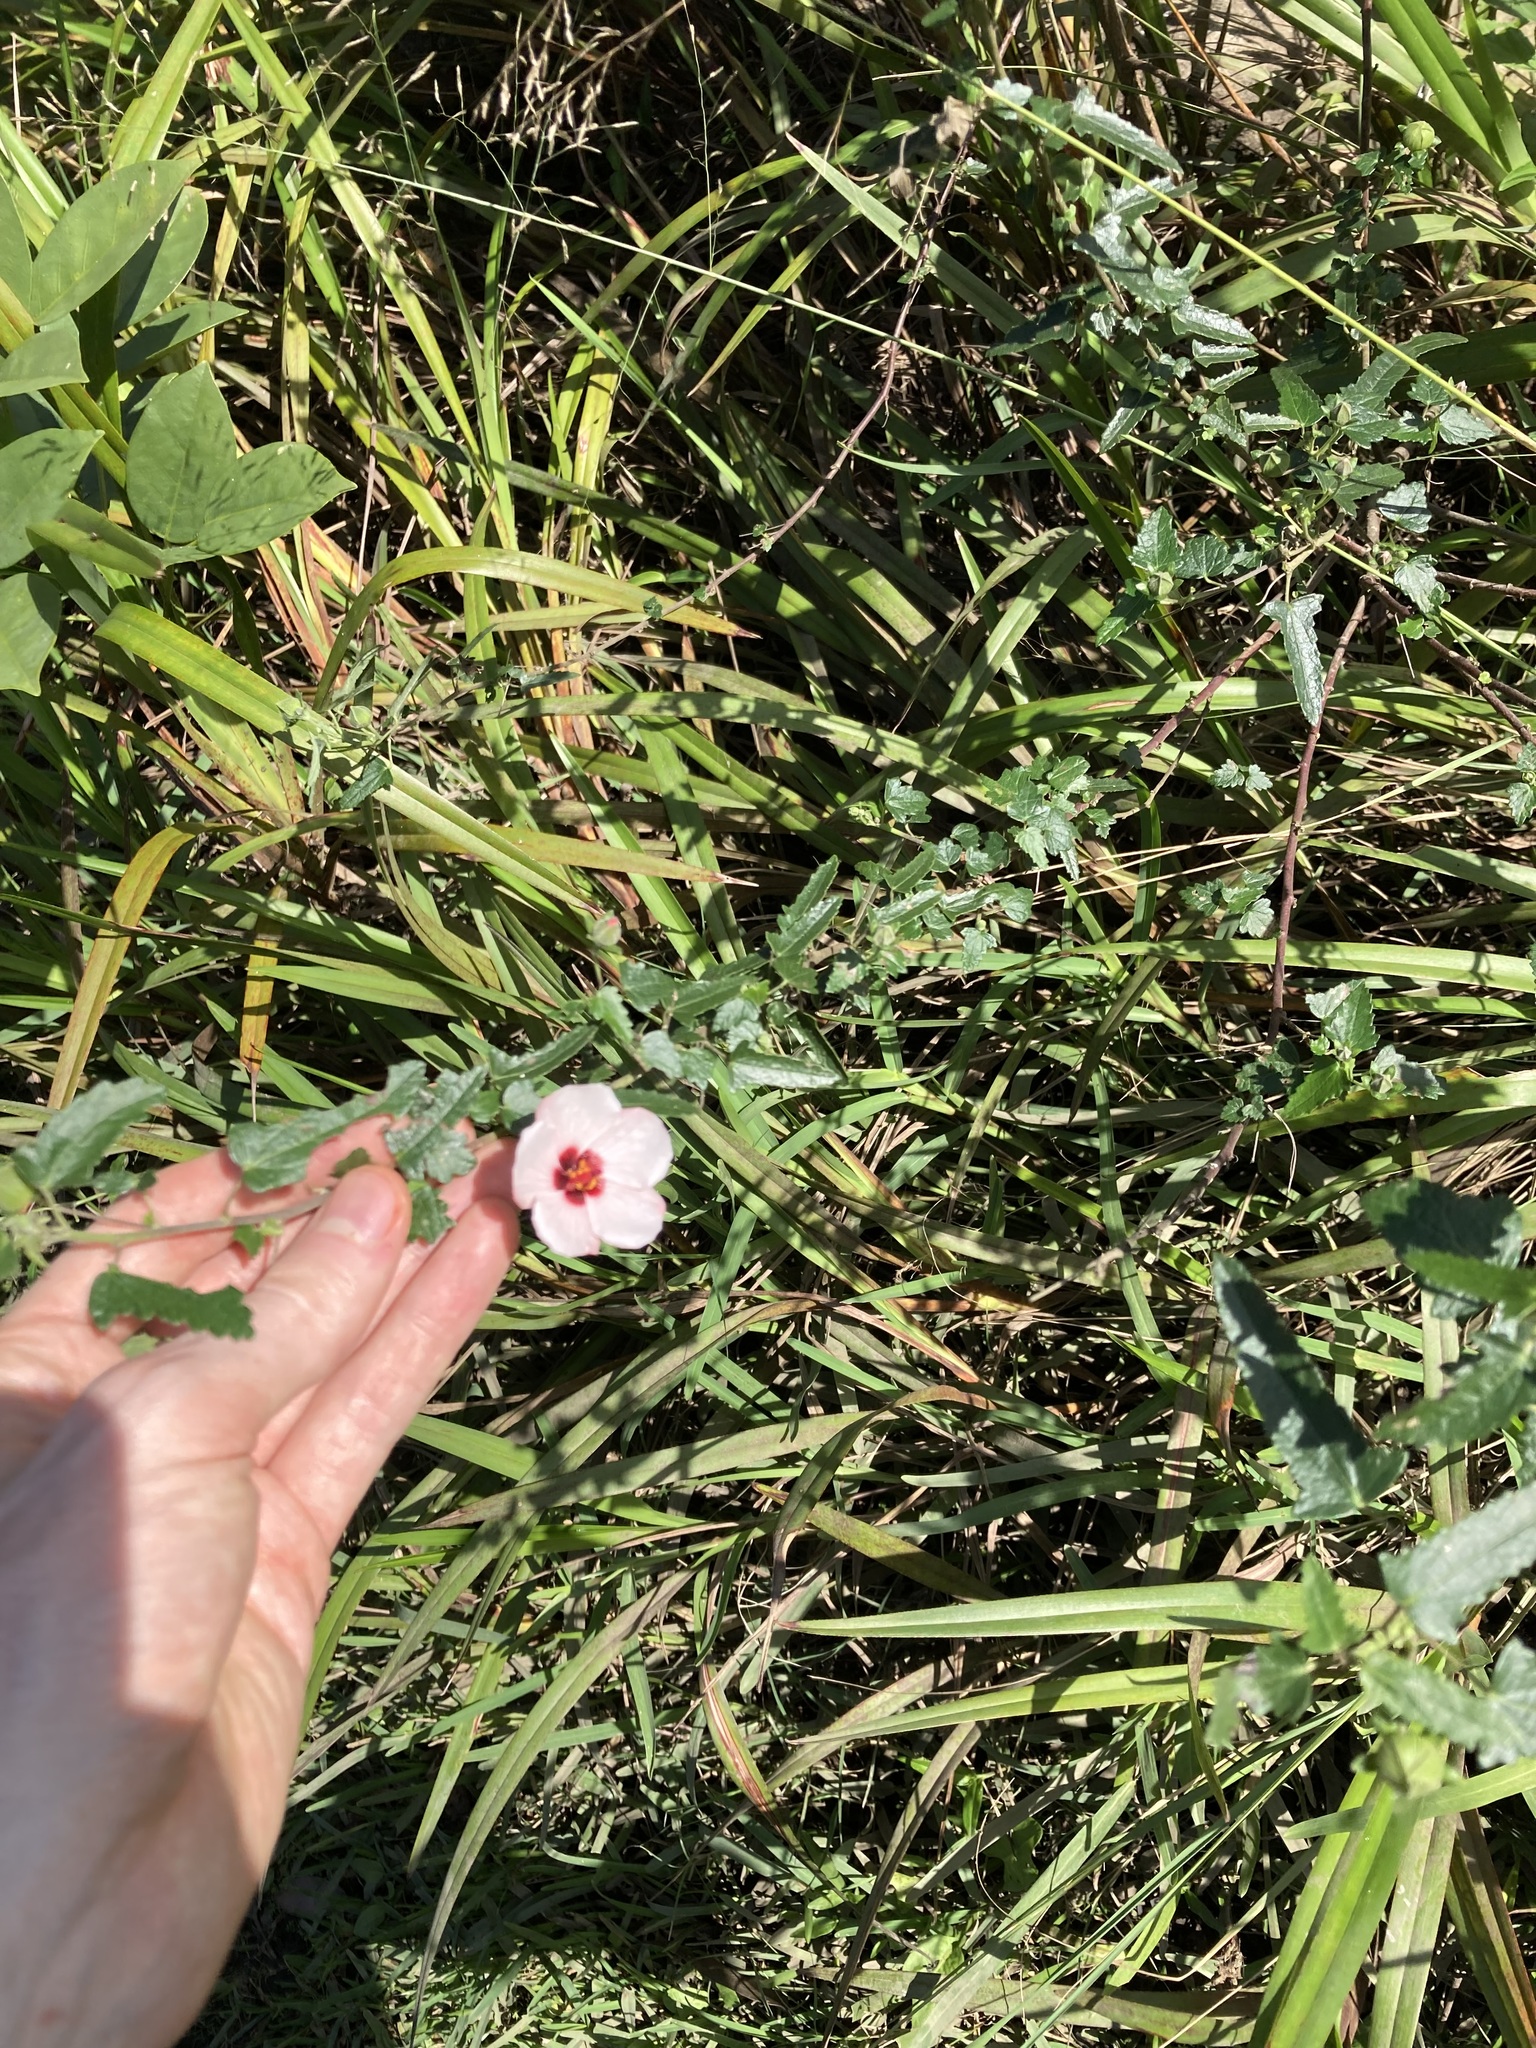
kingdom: Plantae
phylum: Tracheophyta
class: Magnoliopsida
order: Malvales
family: Malvaceae
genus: Pavonia
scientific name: Pavonia hastata
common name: Spearleaf swampmallow
